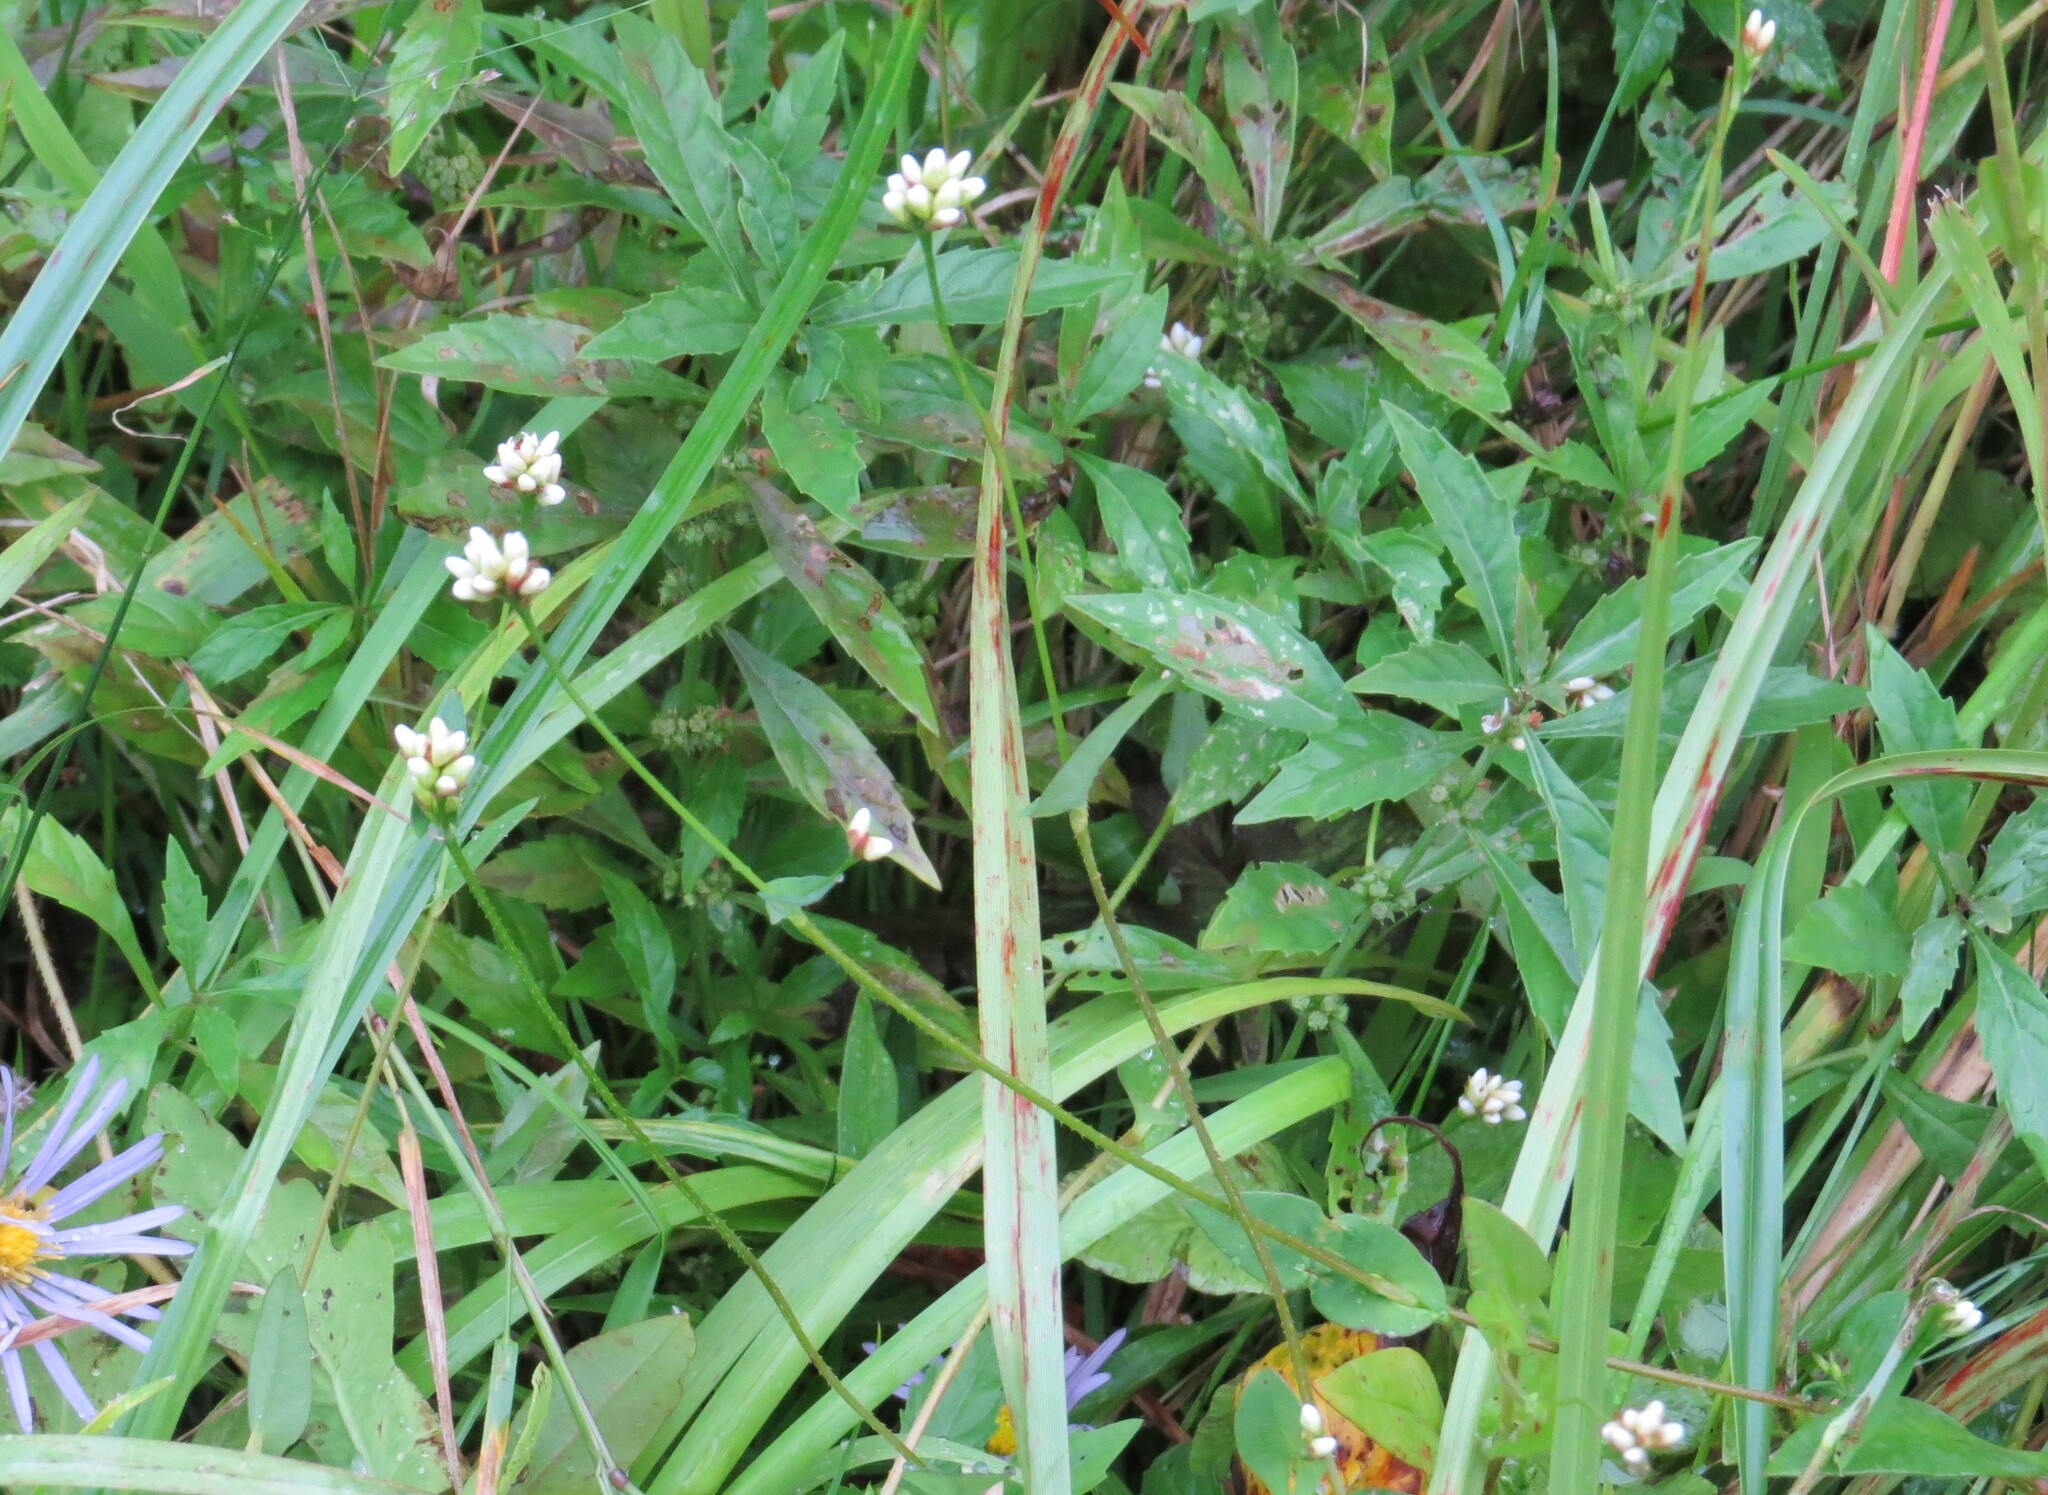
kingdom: Plantae
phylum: Tracheophyta
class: Magnoliopsida
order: Caryophyllales
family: Polygonaceae
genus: Persicaria
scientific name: Persicaria sagittata
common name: American tearthumb
